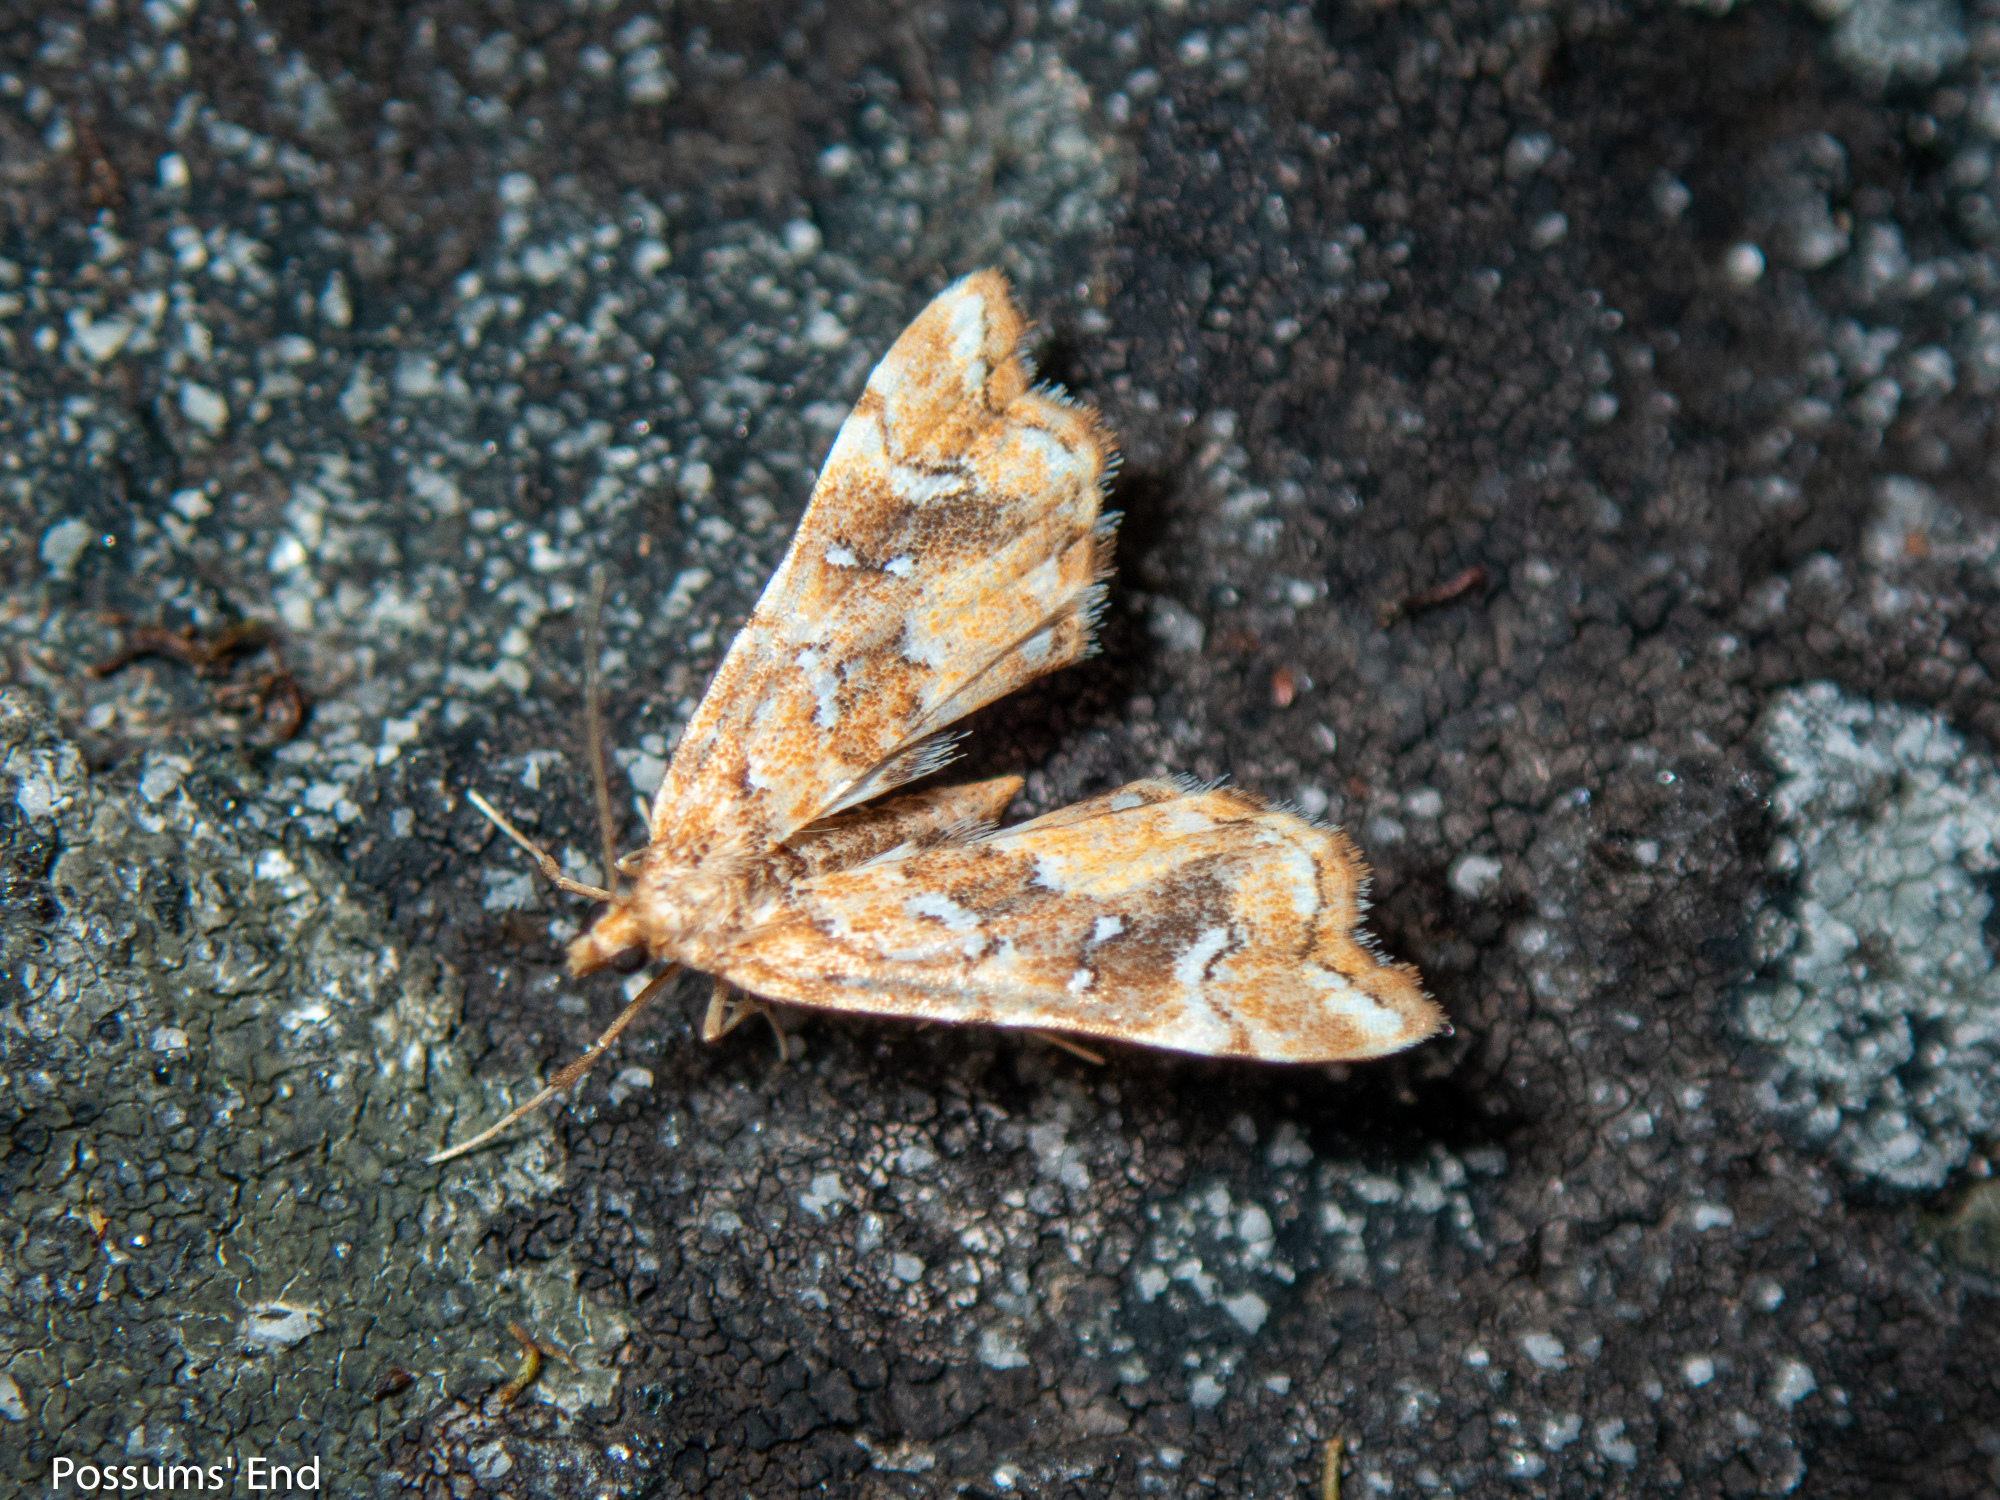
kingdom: Animalia
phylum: Arthropoda
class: Insecta
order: Lepidoptera
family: Pyralidae
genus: Musotima
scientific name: Musotima nitidalis
